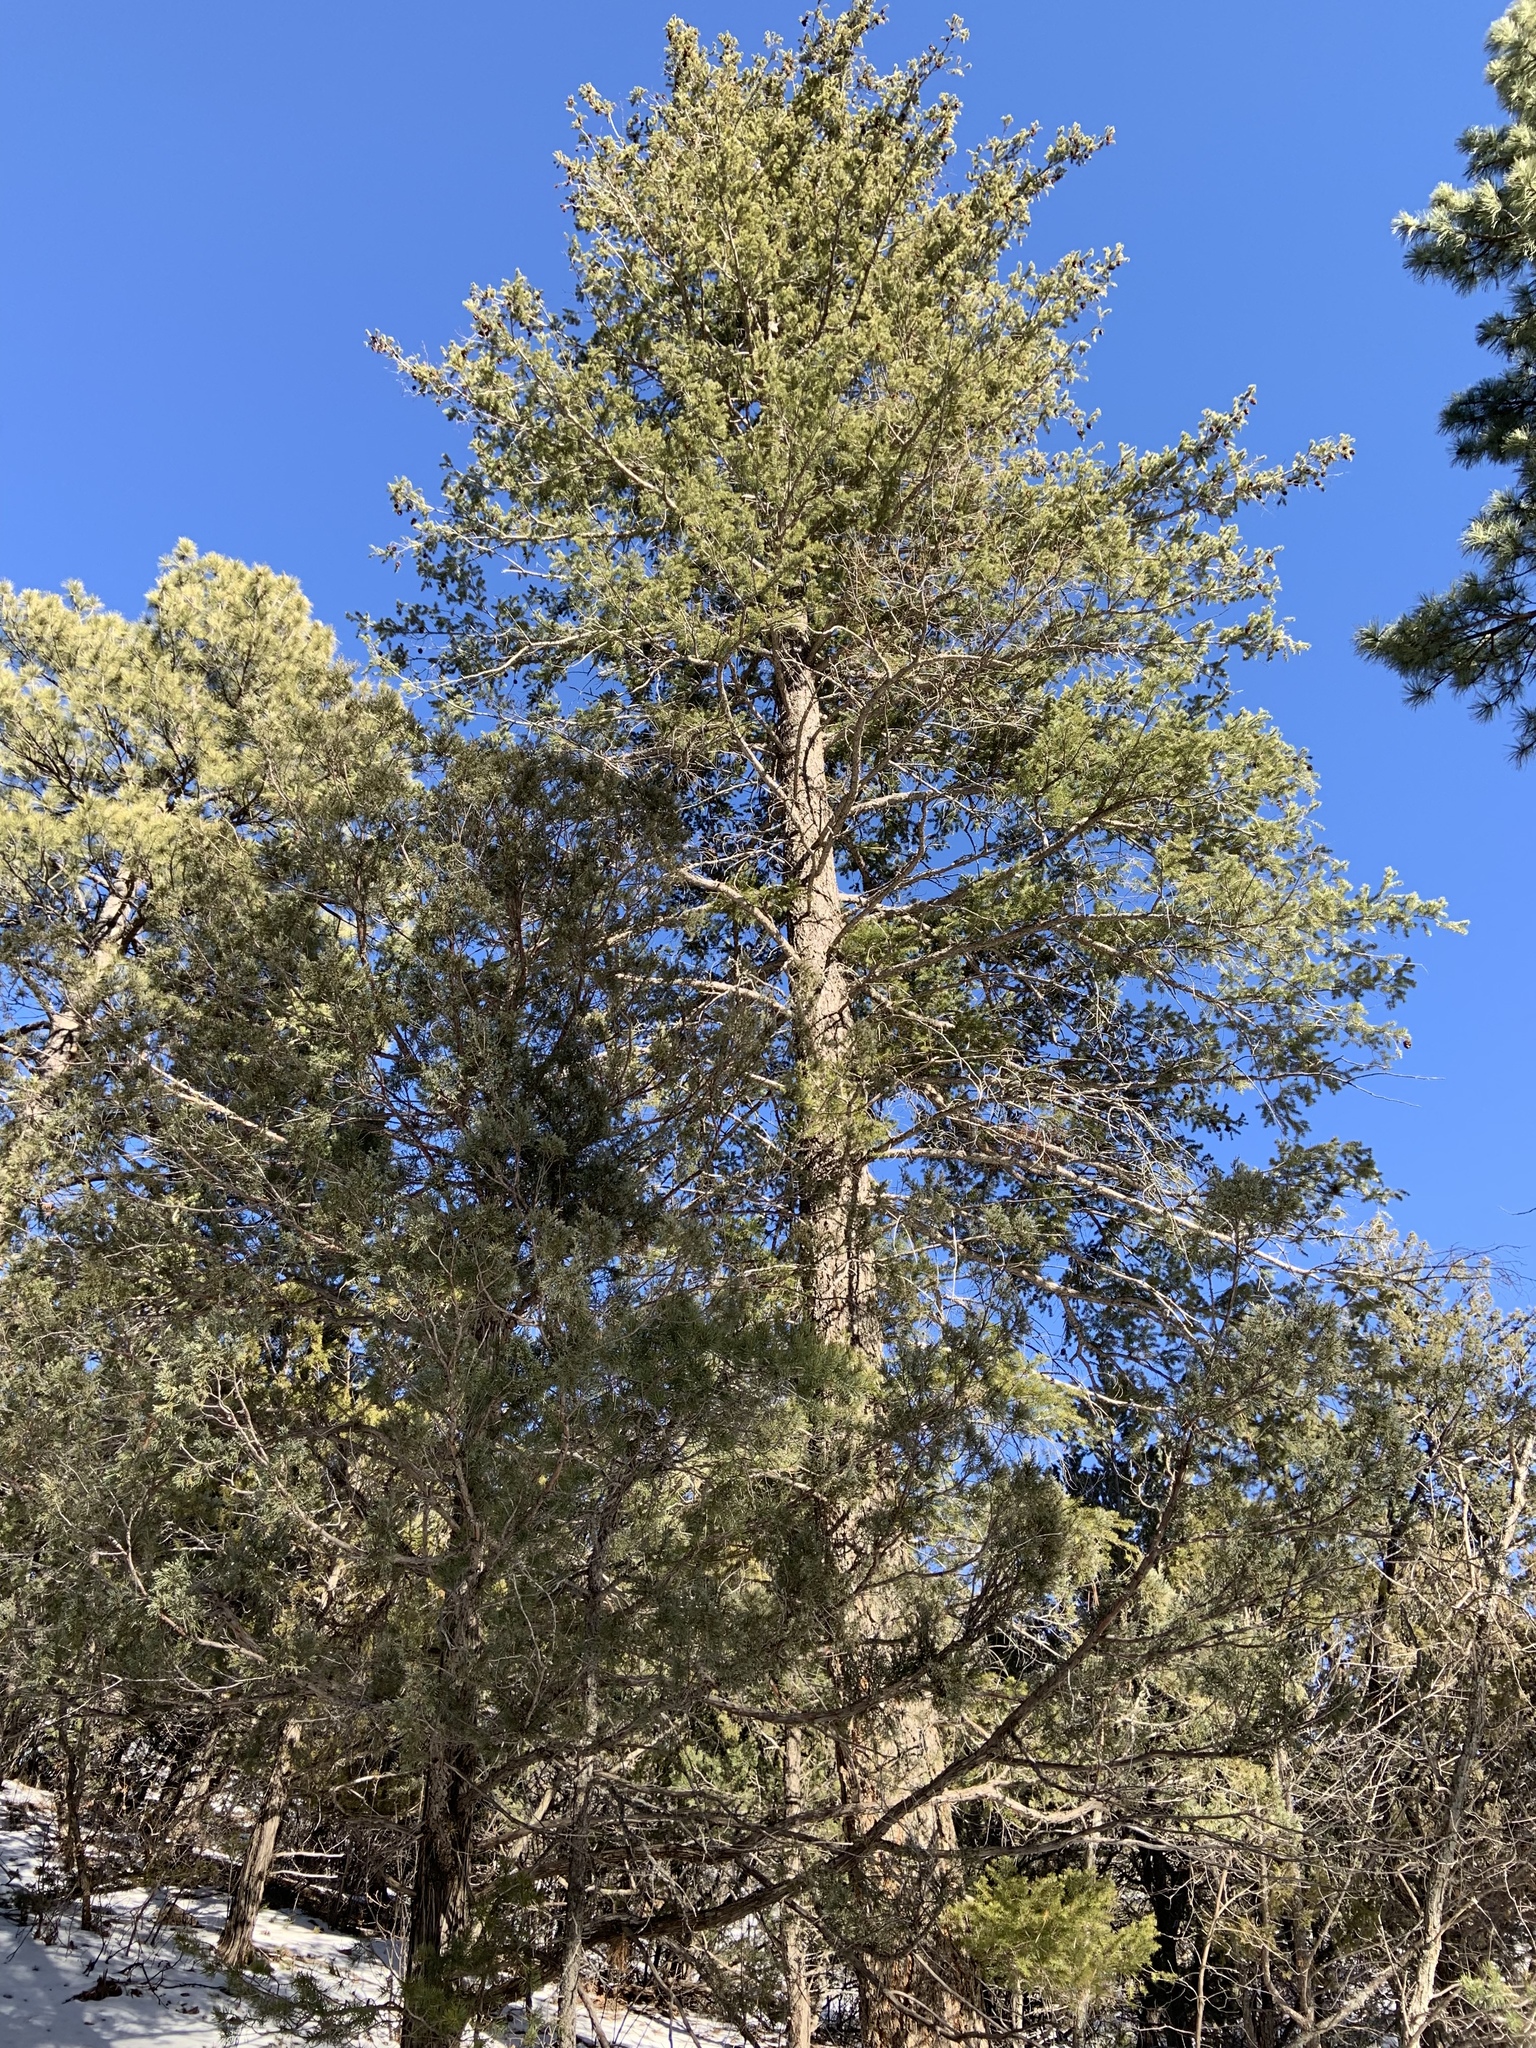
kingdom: Plantae
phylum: Tracheophyta
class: Pinopsida
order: Pinales
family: Pinaceae
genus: Pseudotsuga
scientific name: Pseudotsuga menziesii
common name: Douglas fir
